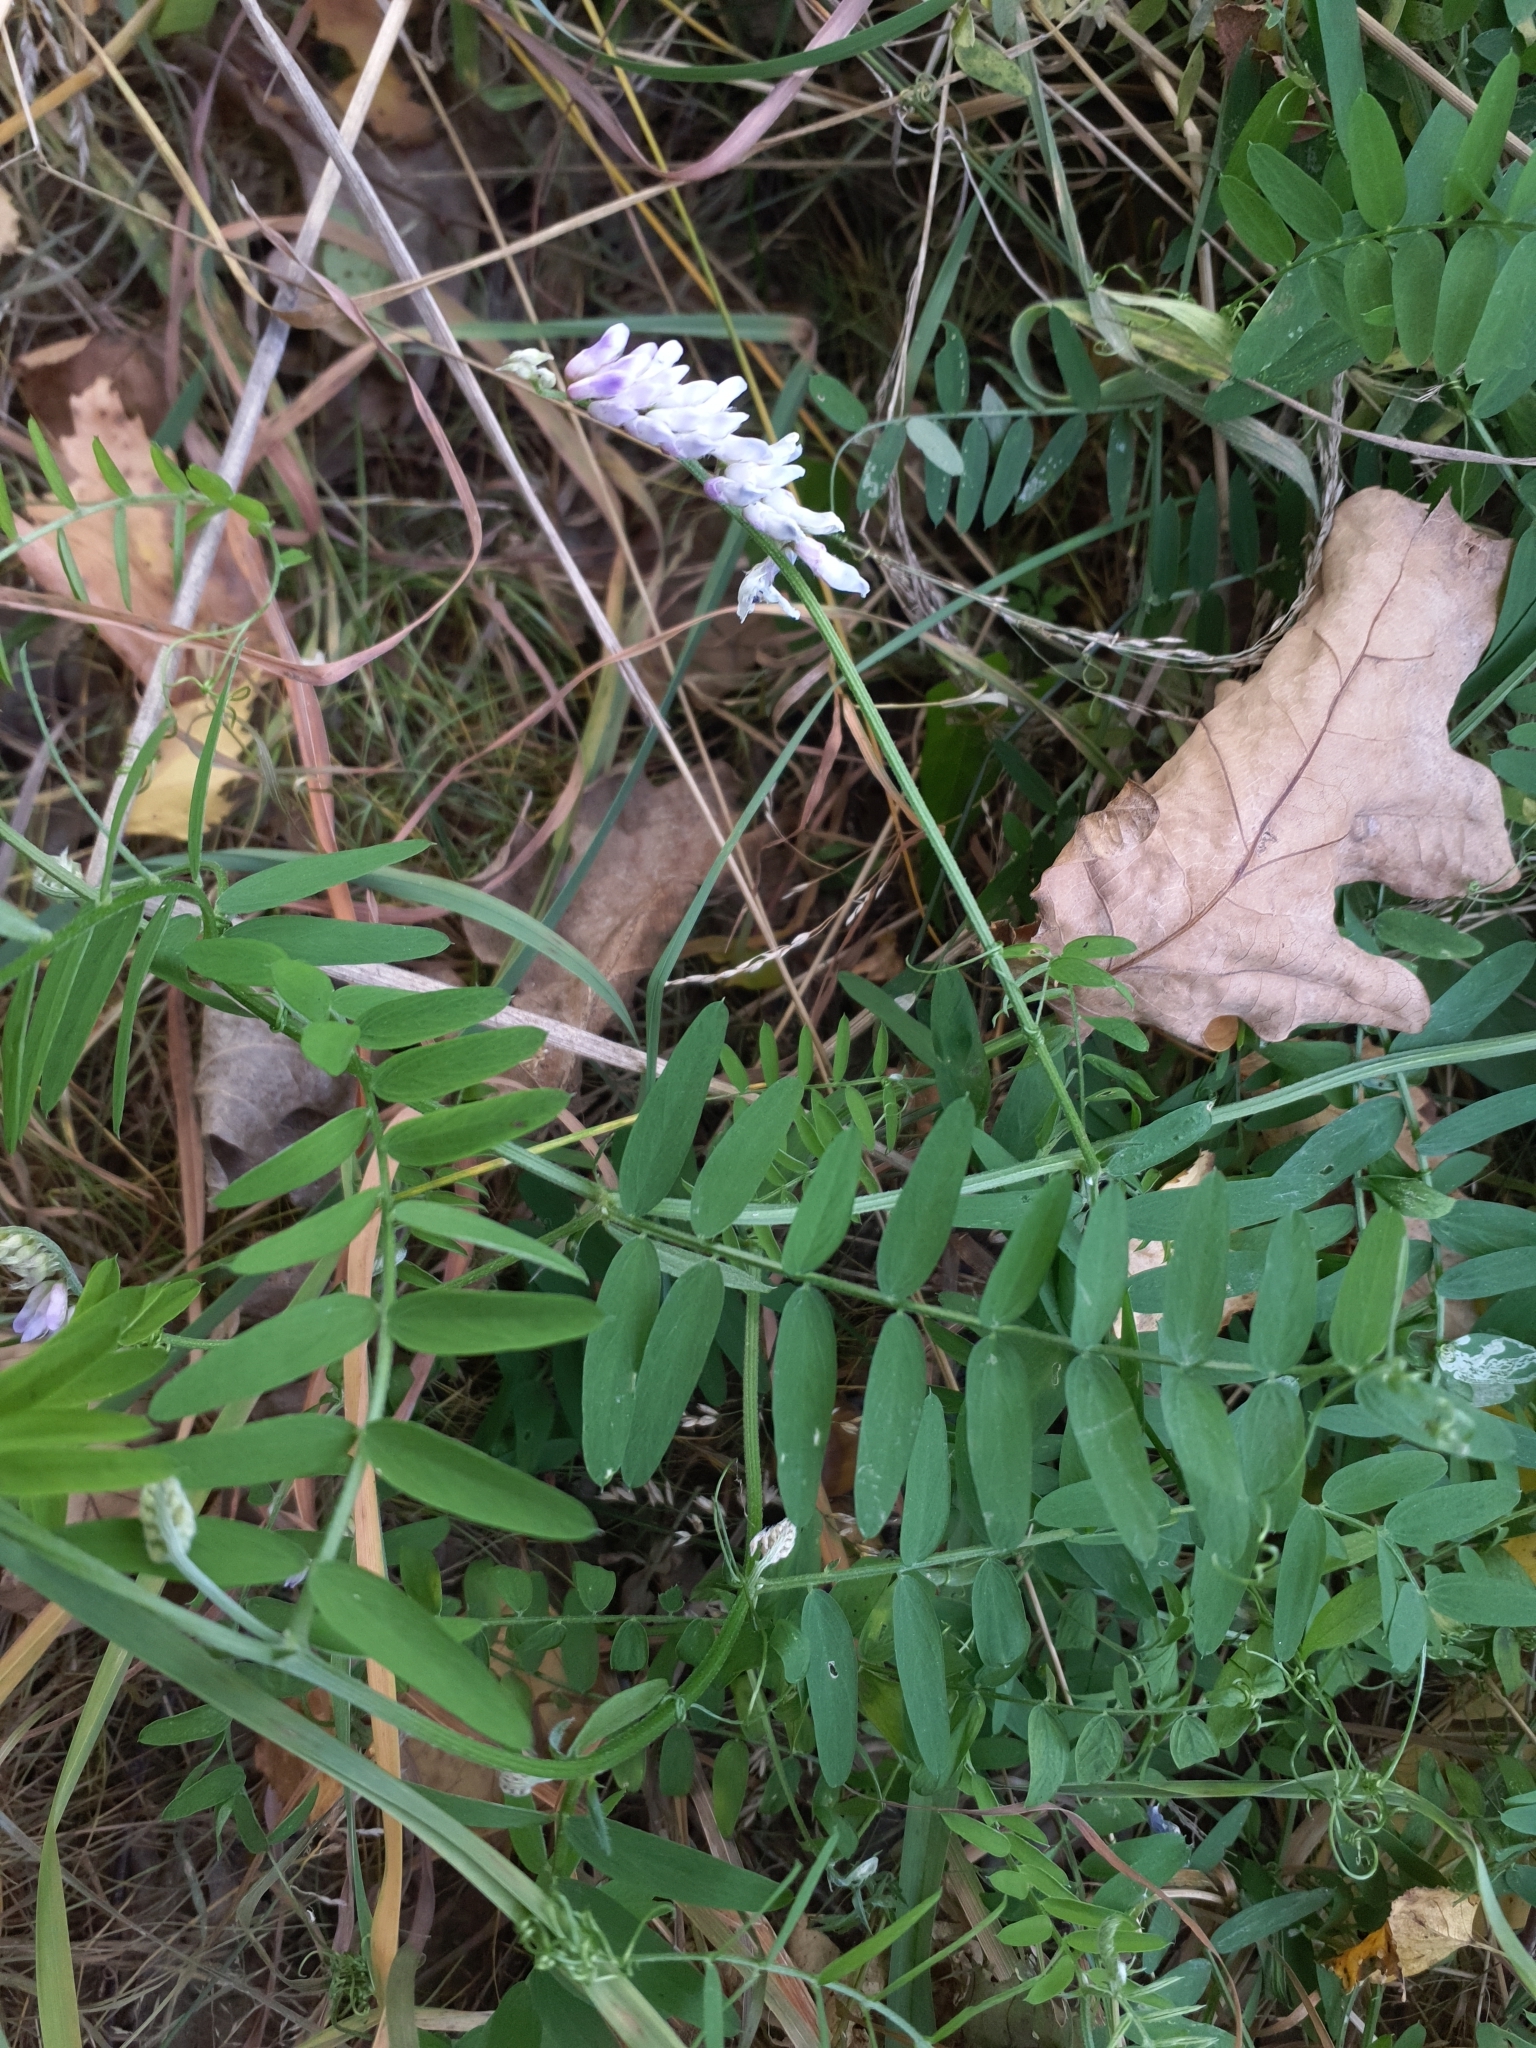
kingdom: Plantae
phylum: Tracheophyta
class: Magnoliopsida
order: Fabales
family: Fabaceae
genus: Vicia
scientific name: Vicia cracca
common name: Bird vetch
